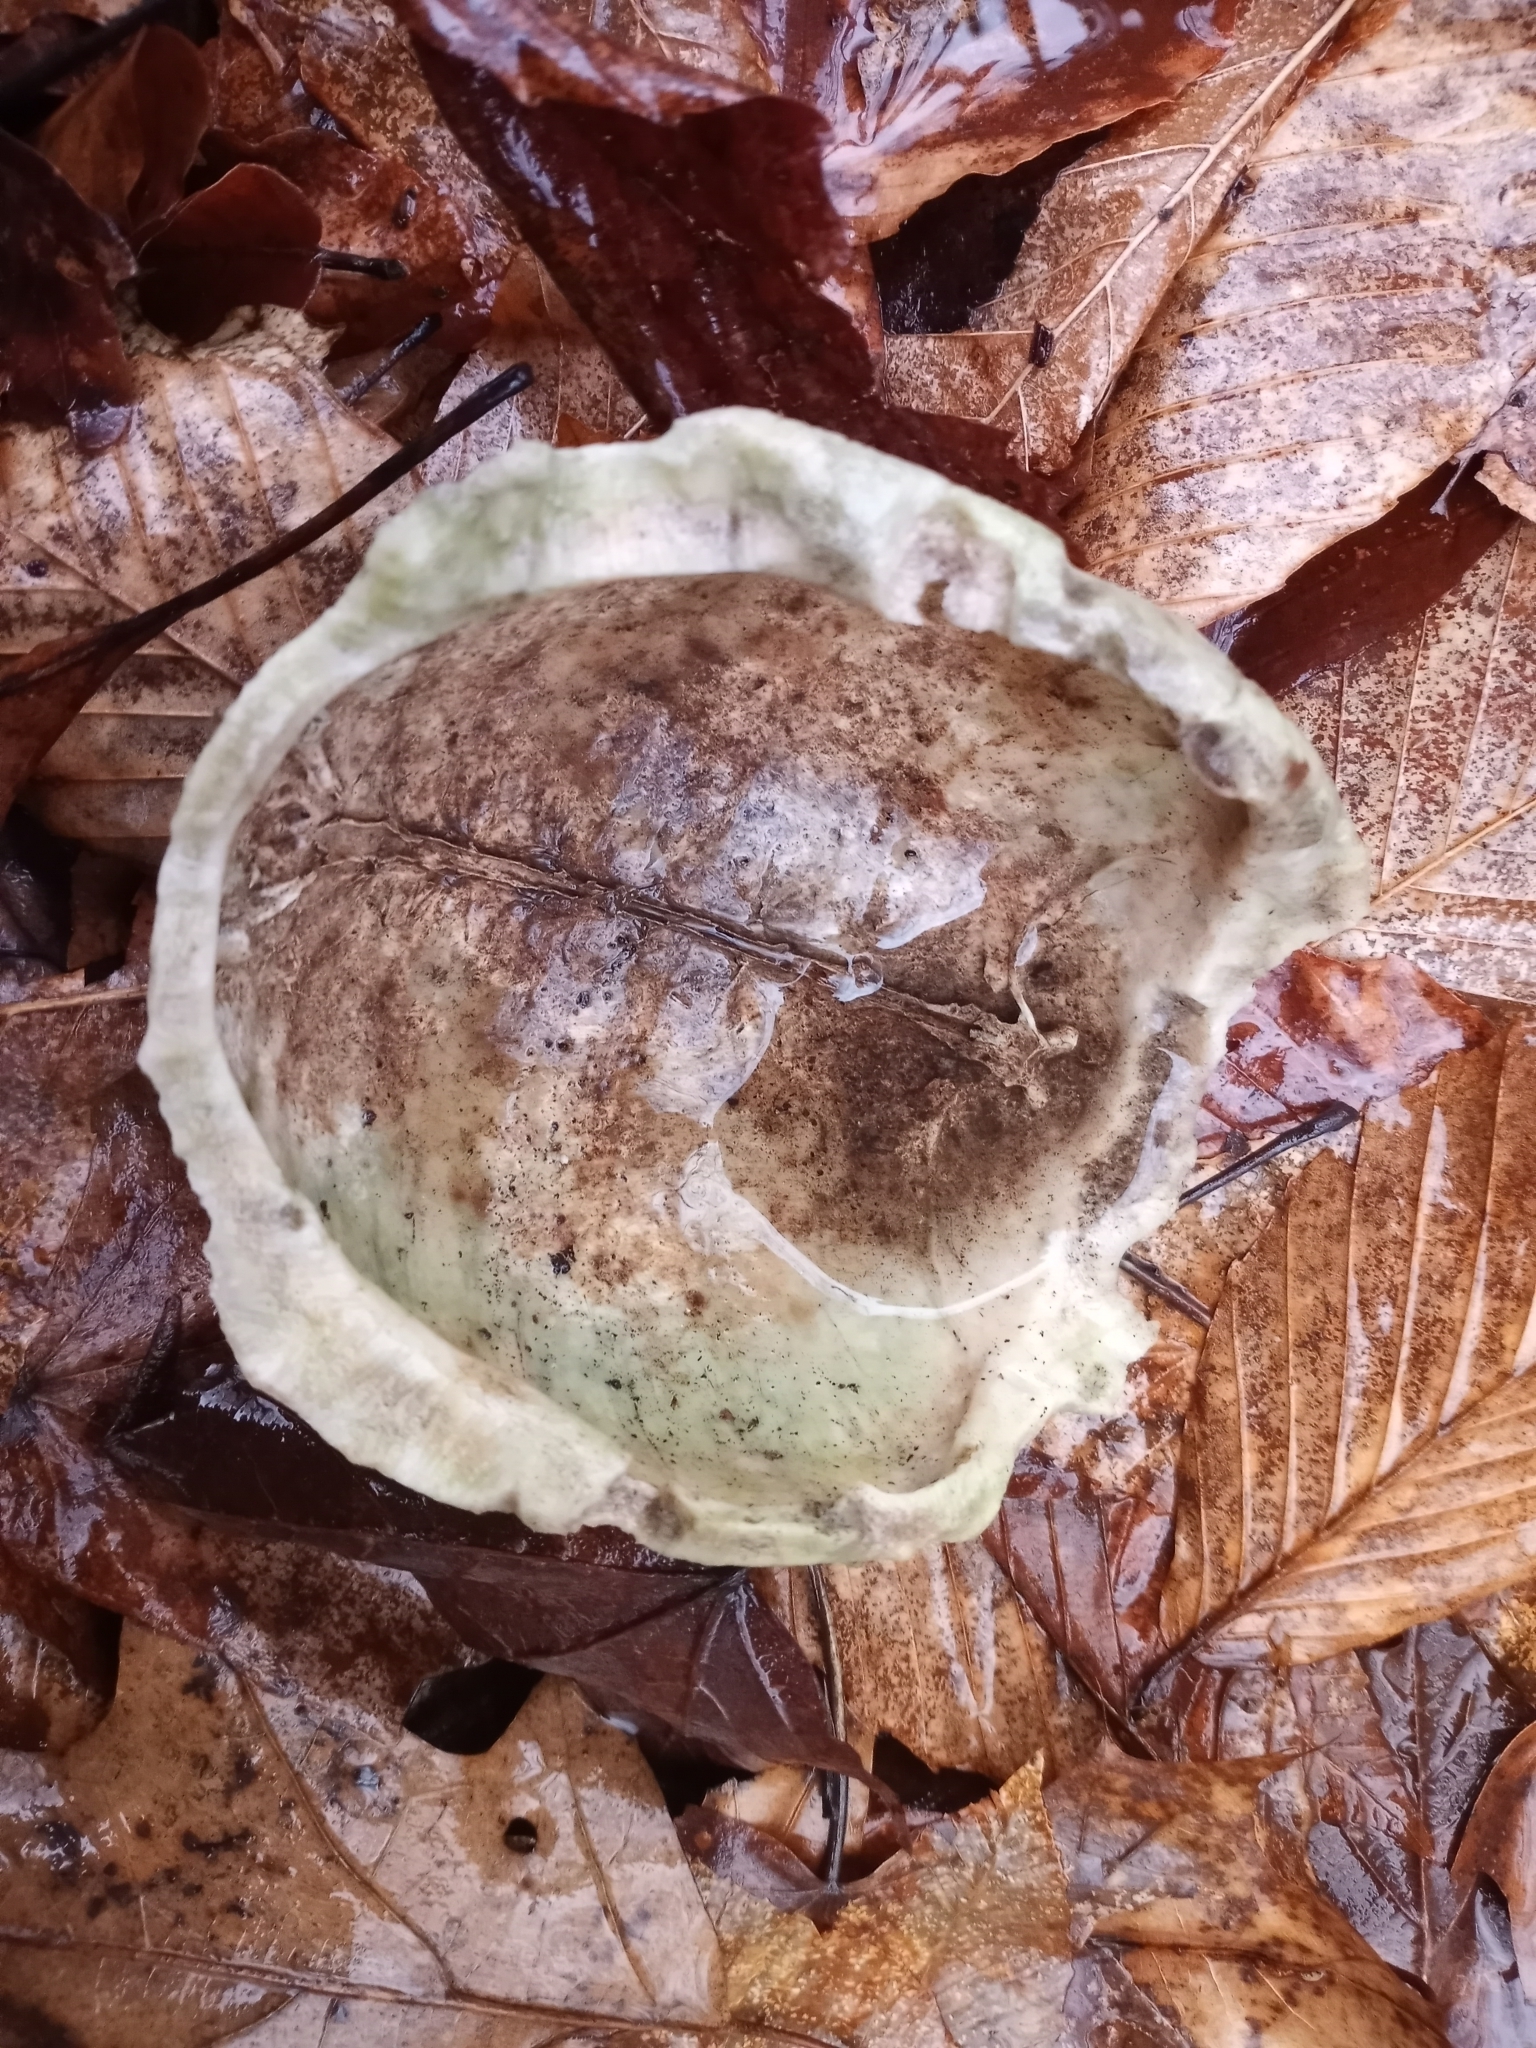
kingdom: Animalia
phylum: Chordata
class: Testudines
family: Emydidae
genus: Terrapene
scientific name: Terrapene carolina
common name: Common box turtle
